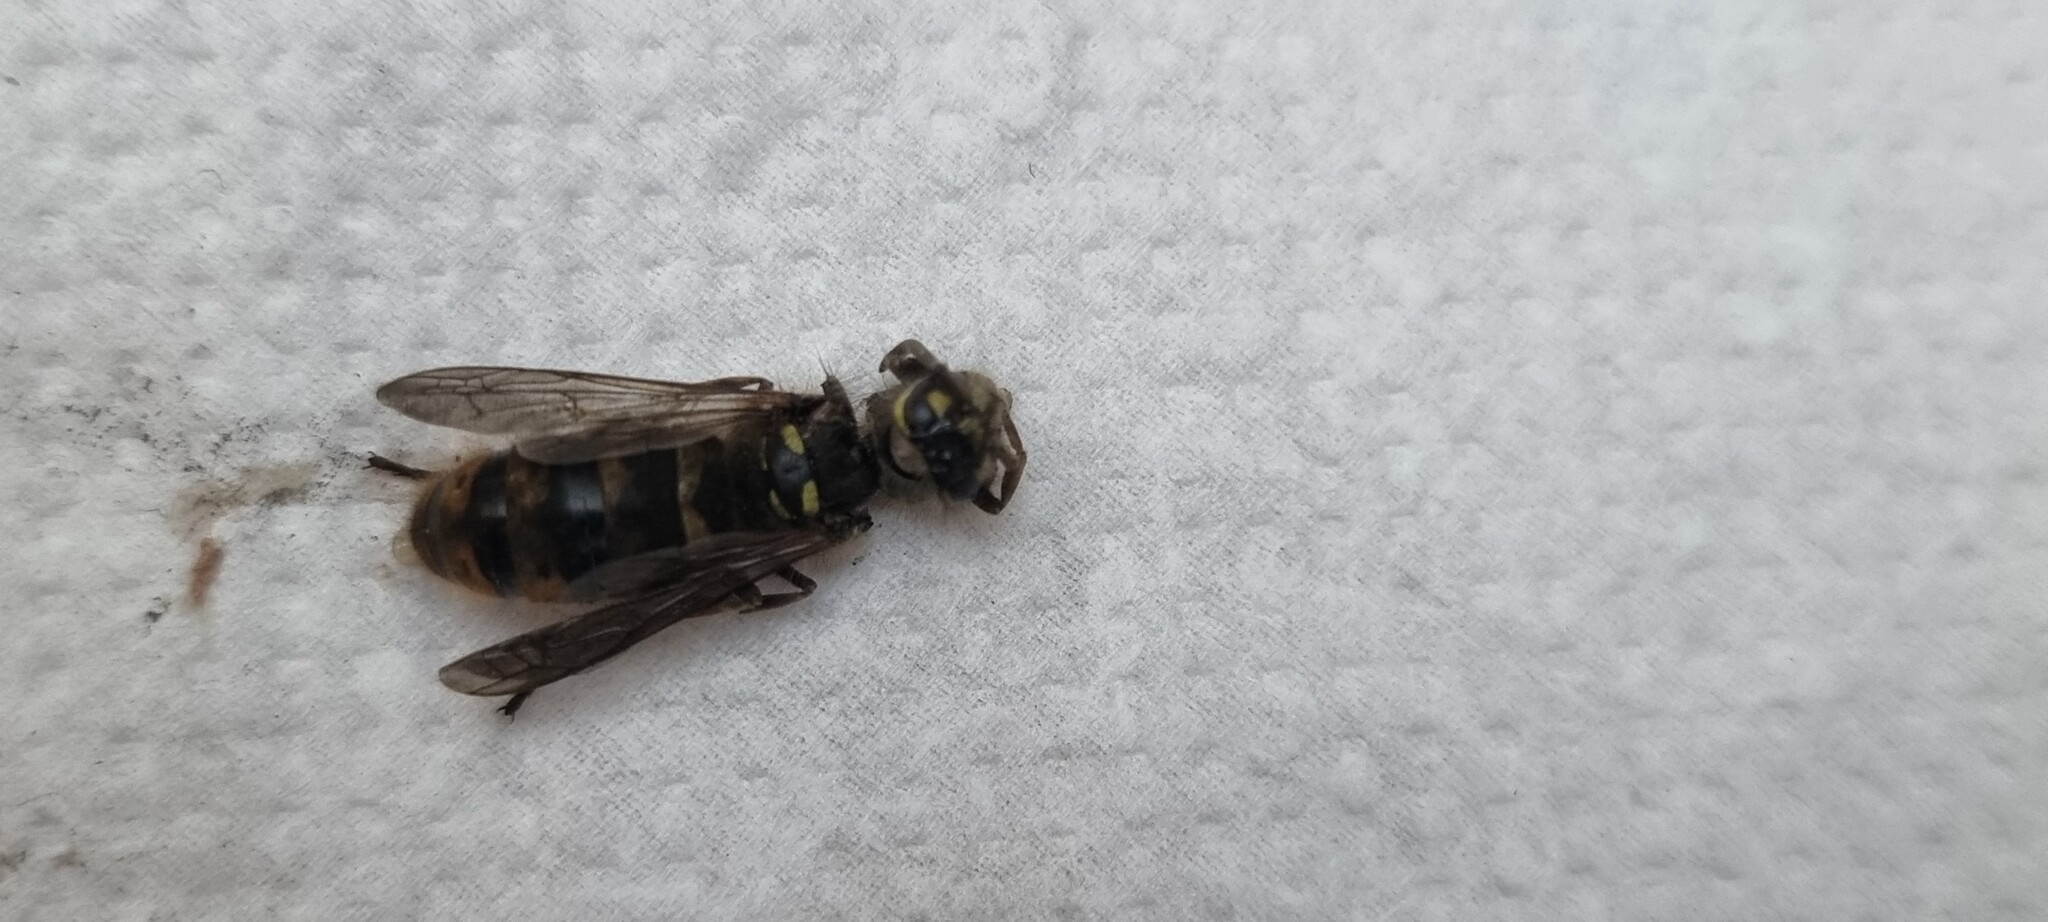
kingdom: Animalia
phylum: Arthropoda
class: Insecta
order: Hymenoptera
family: Vespidae
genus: Vespula
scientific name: Vespula vulgaris
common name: Common wasp
